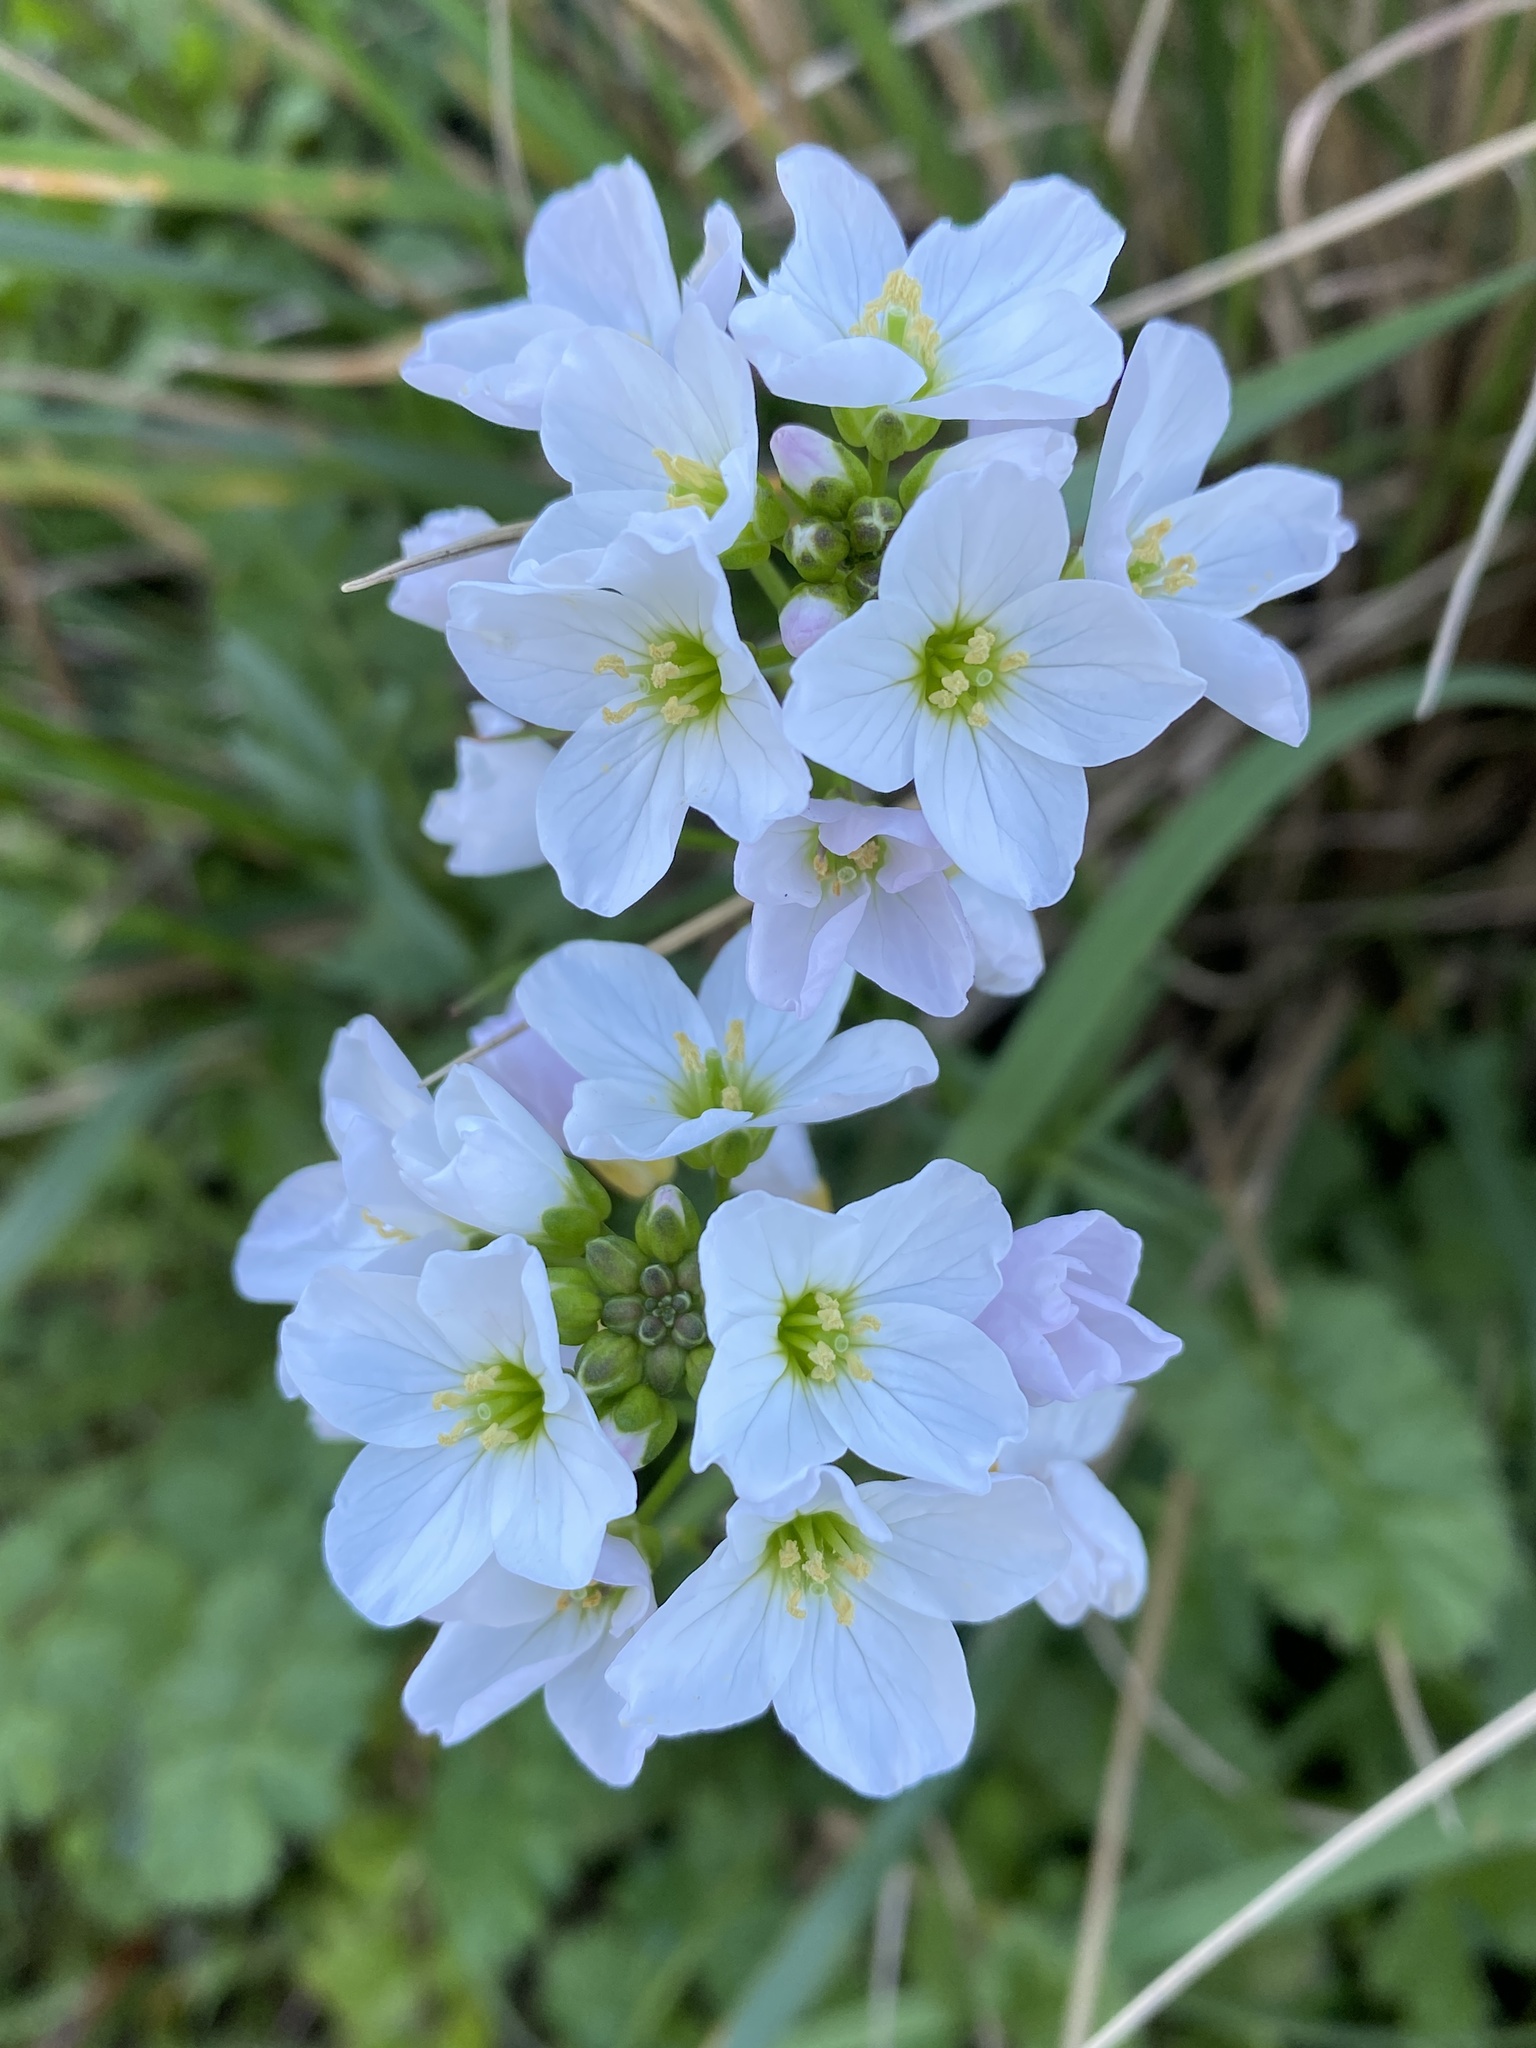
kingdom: Plantae
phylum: Tracheophyta
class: Magnoliopsida
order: Brassicales
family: Brassicaceae
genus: Cardamine
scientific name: Cardamine californica
